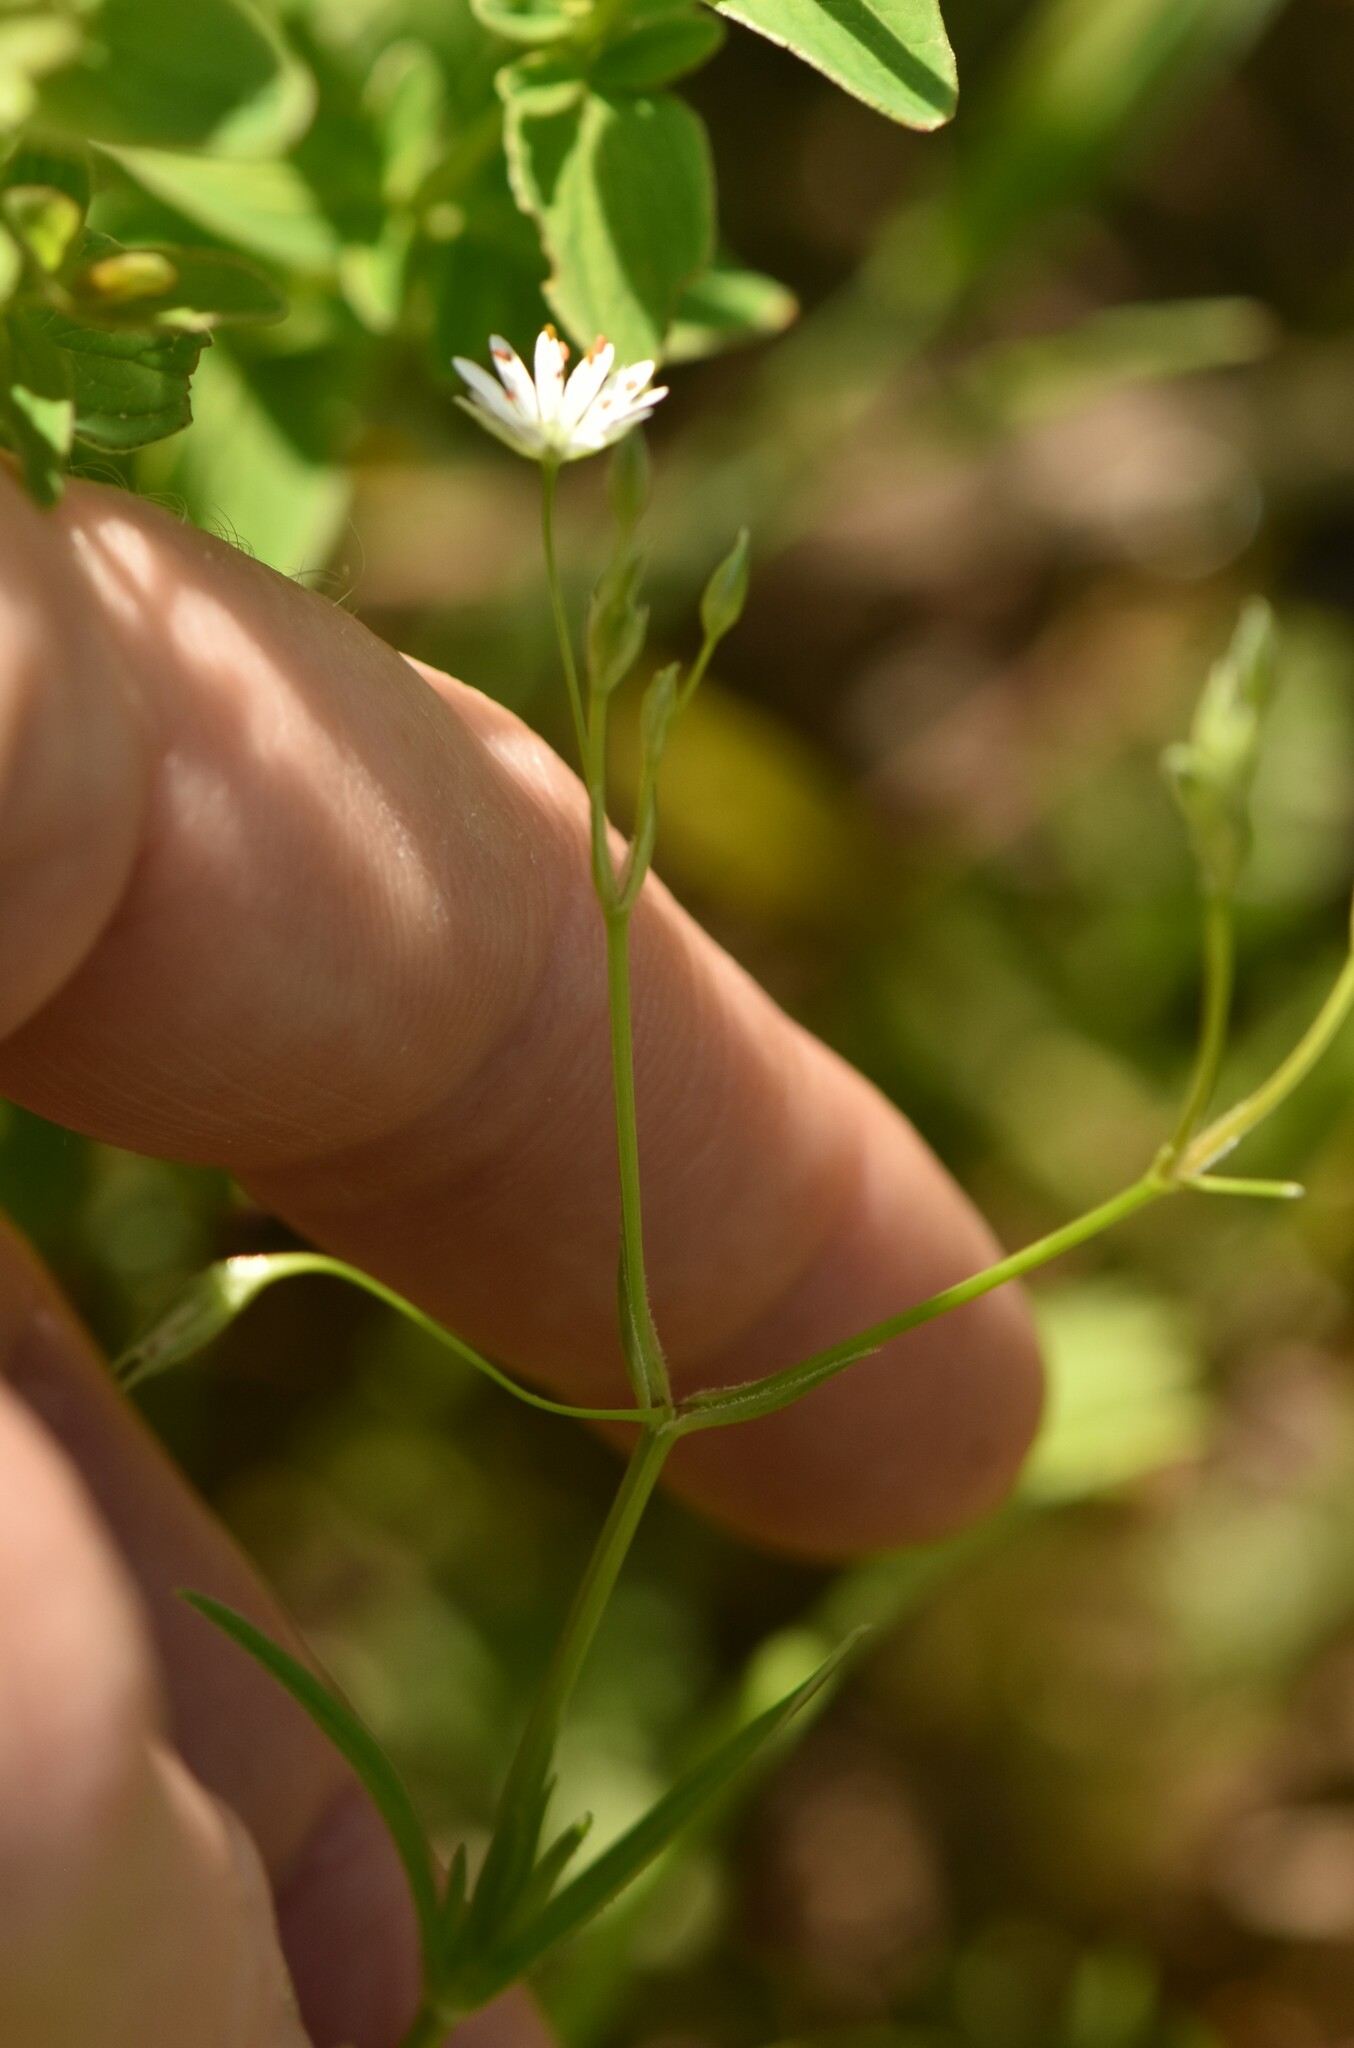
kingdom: Plantae
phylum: Tracheophyta
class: Magnoliopsida
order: Caryophyllales
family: Caryophyllaceae
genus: Stellaria
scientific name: Stellaria graminea
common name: Grass-like starwort
